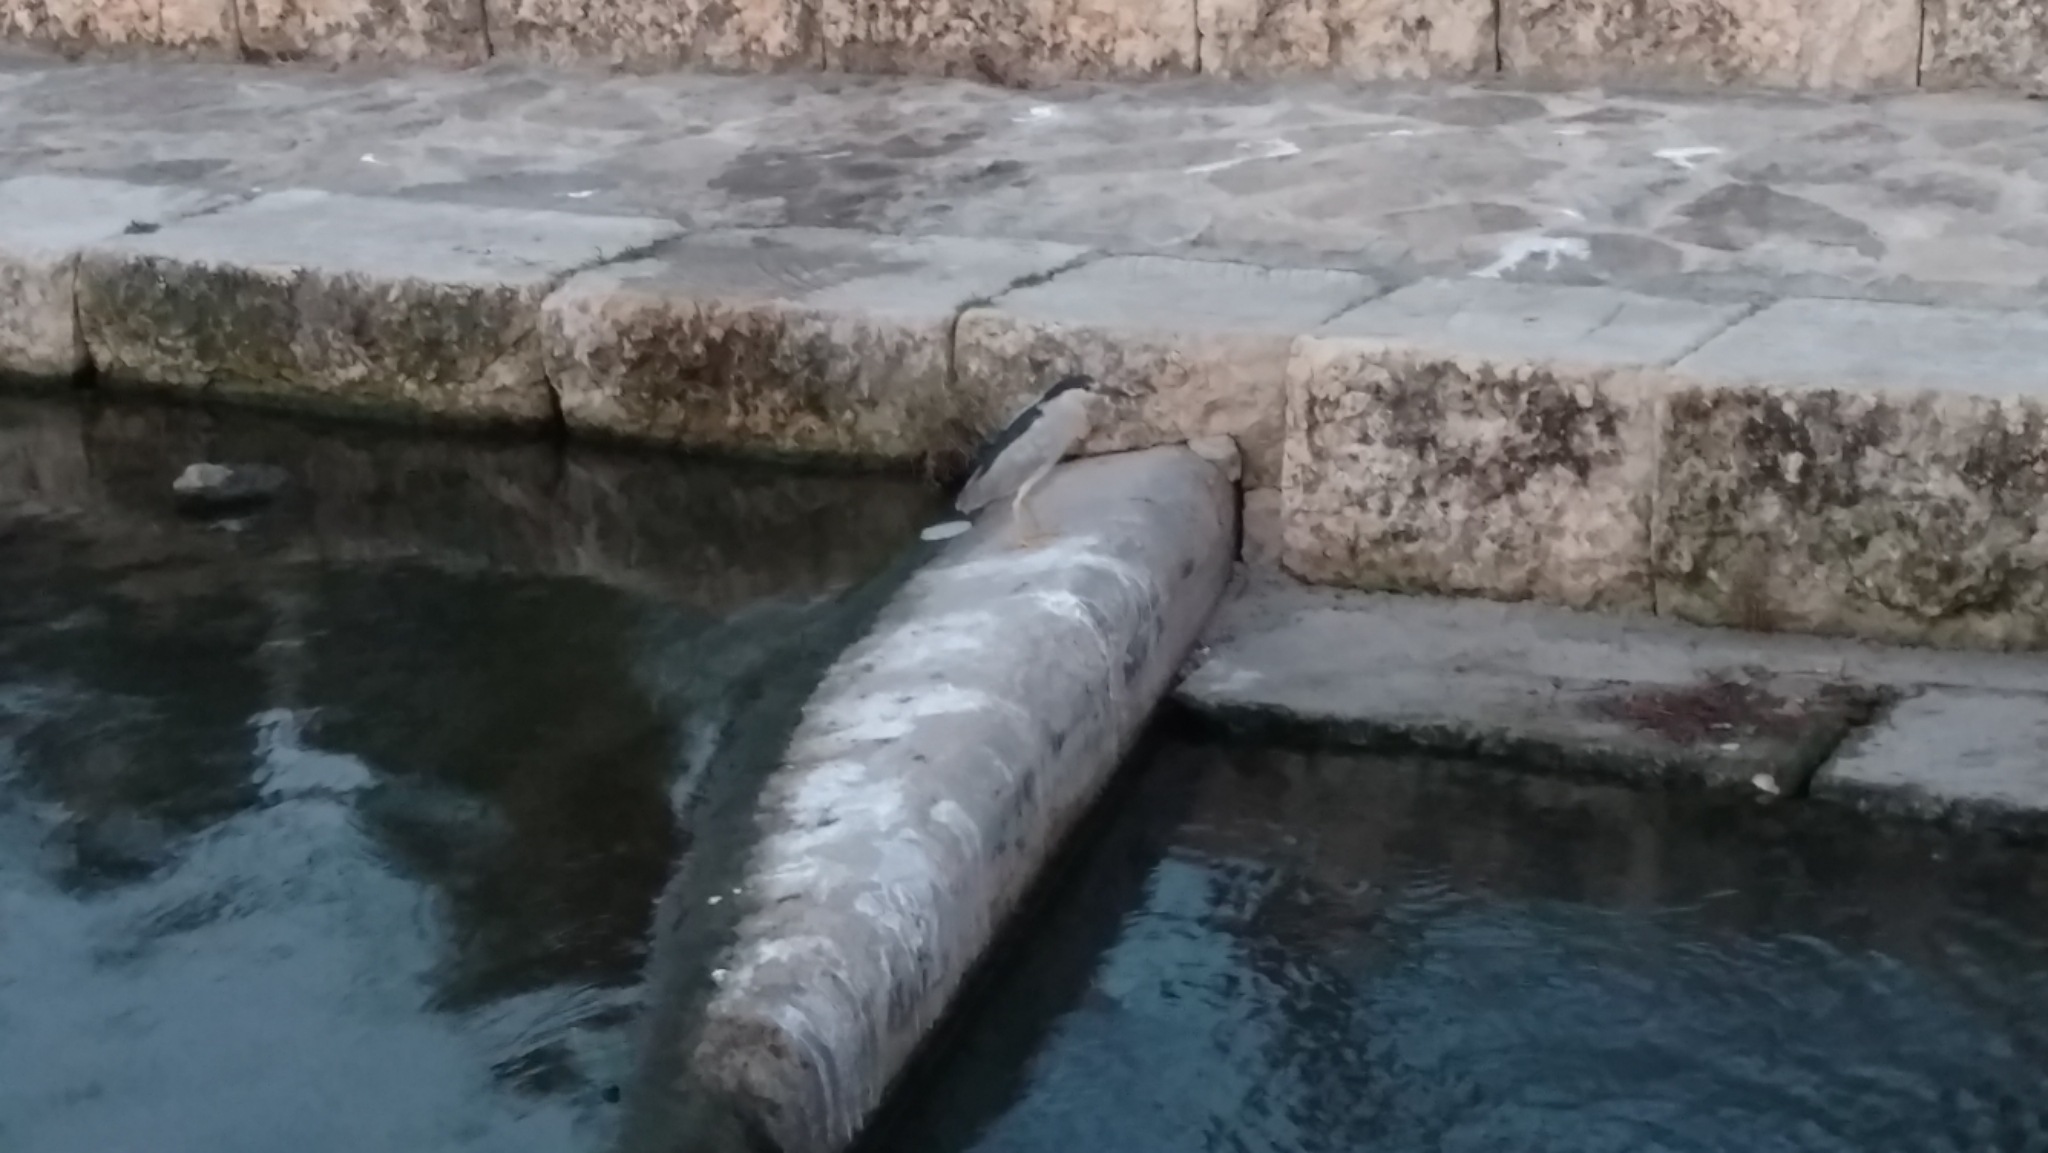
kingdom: Animalia
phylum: Chordata
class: Aves
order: Pelecaniformes
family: Ardeidae
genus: Nycticorax
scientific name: Nycticorax nycticorax
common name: Black-crowned night heron
